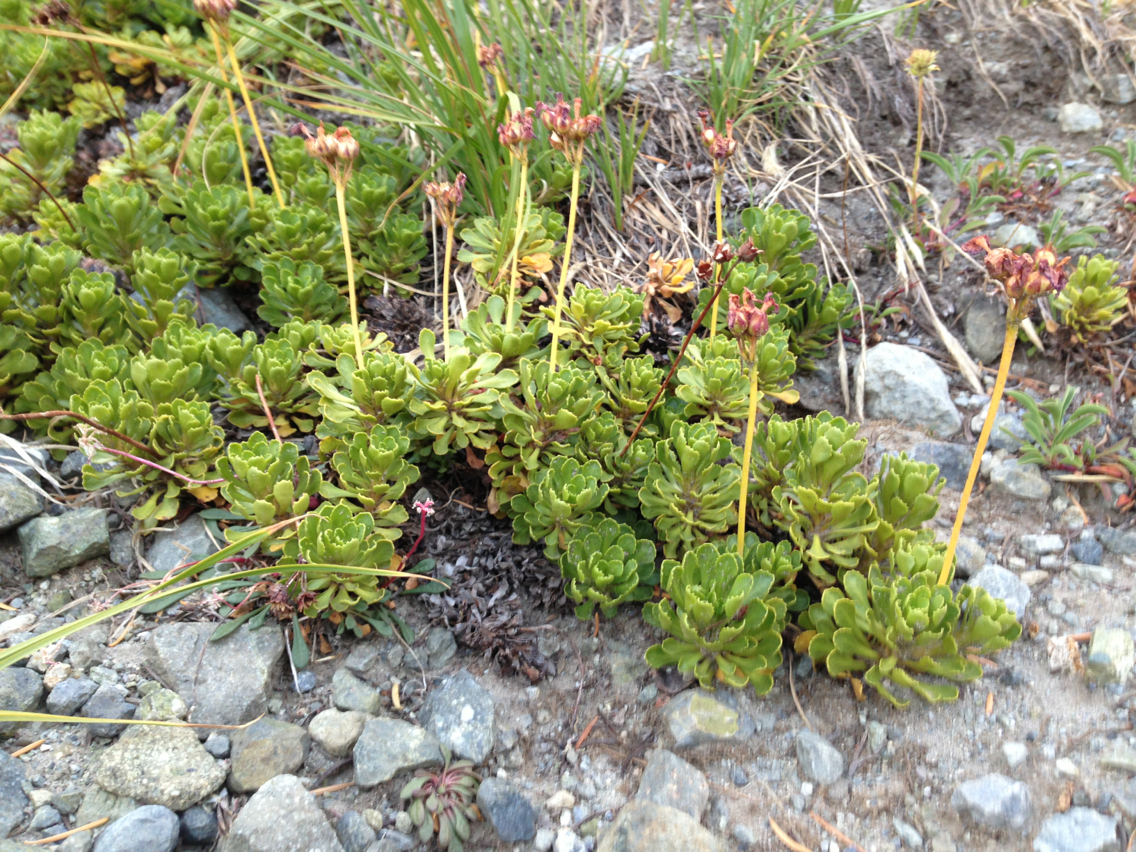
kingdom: Plantae
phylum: Tracheophyta
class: Magnoliopsida
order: Ericales
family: Primulaceae
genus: Primula
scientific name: Primula suffrutescens
